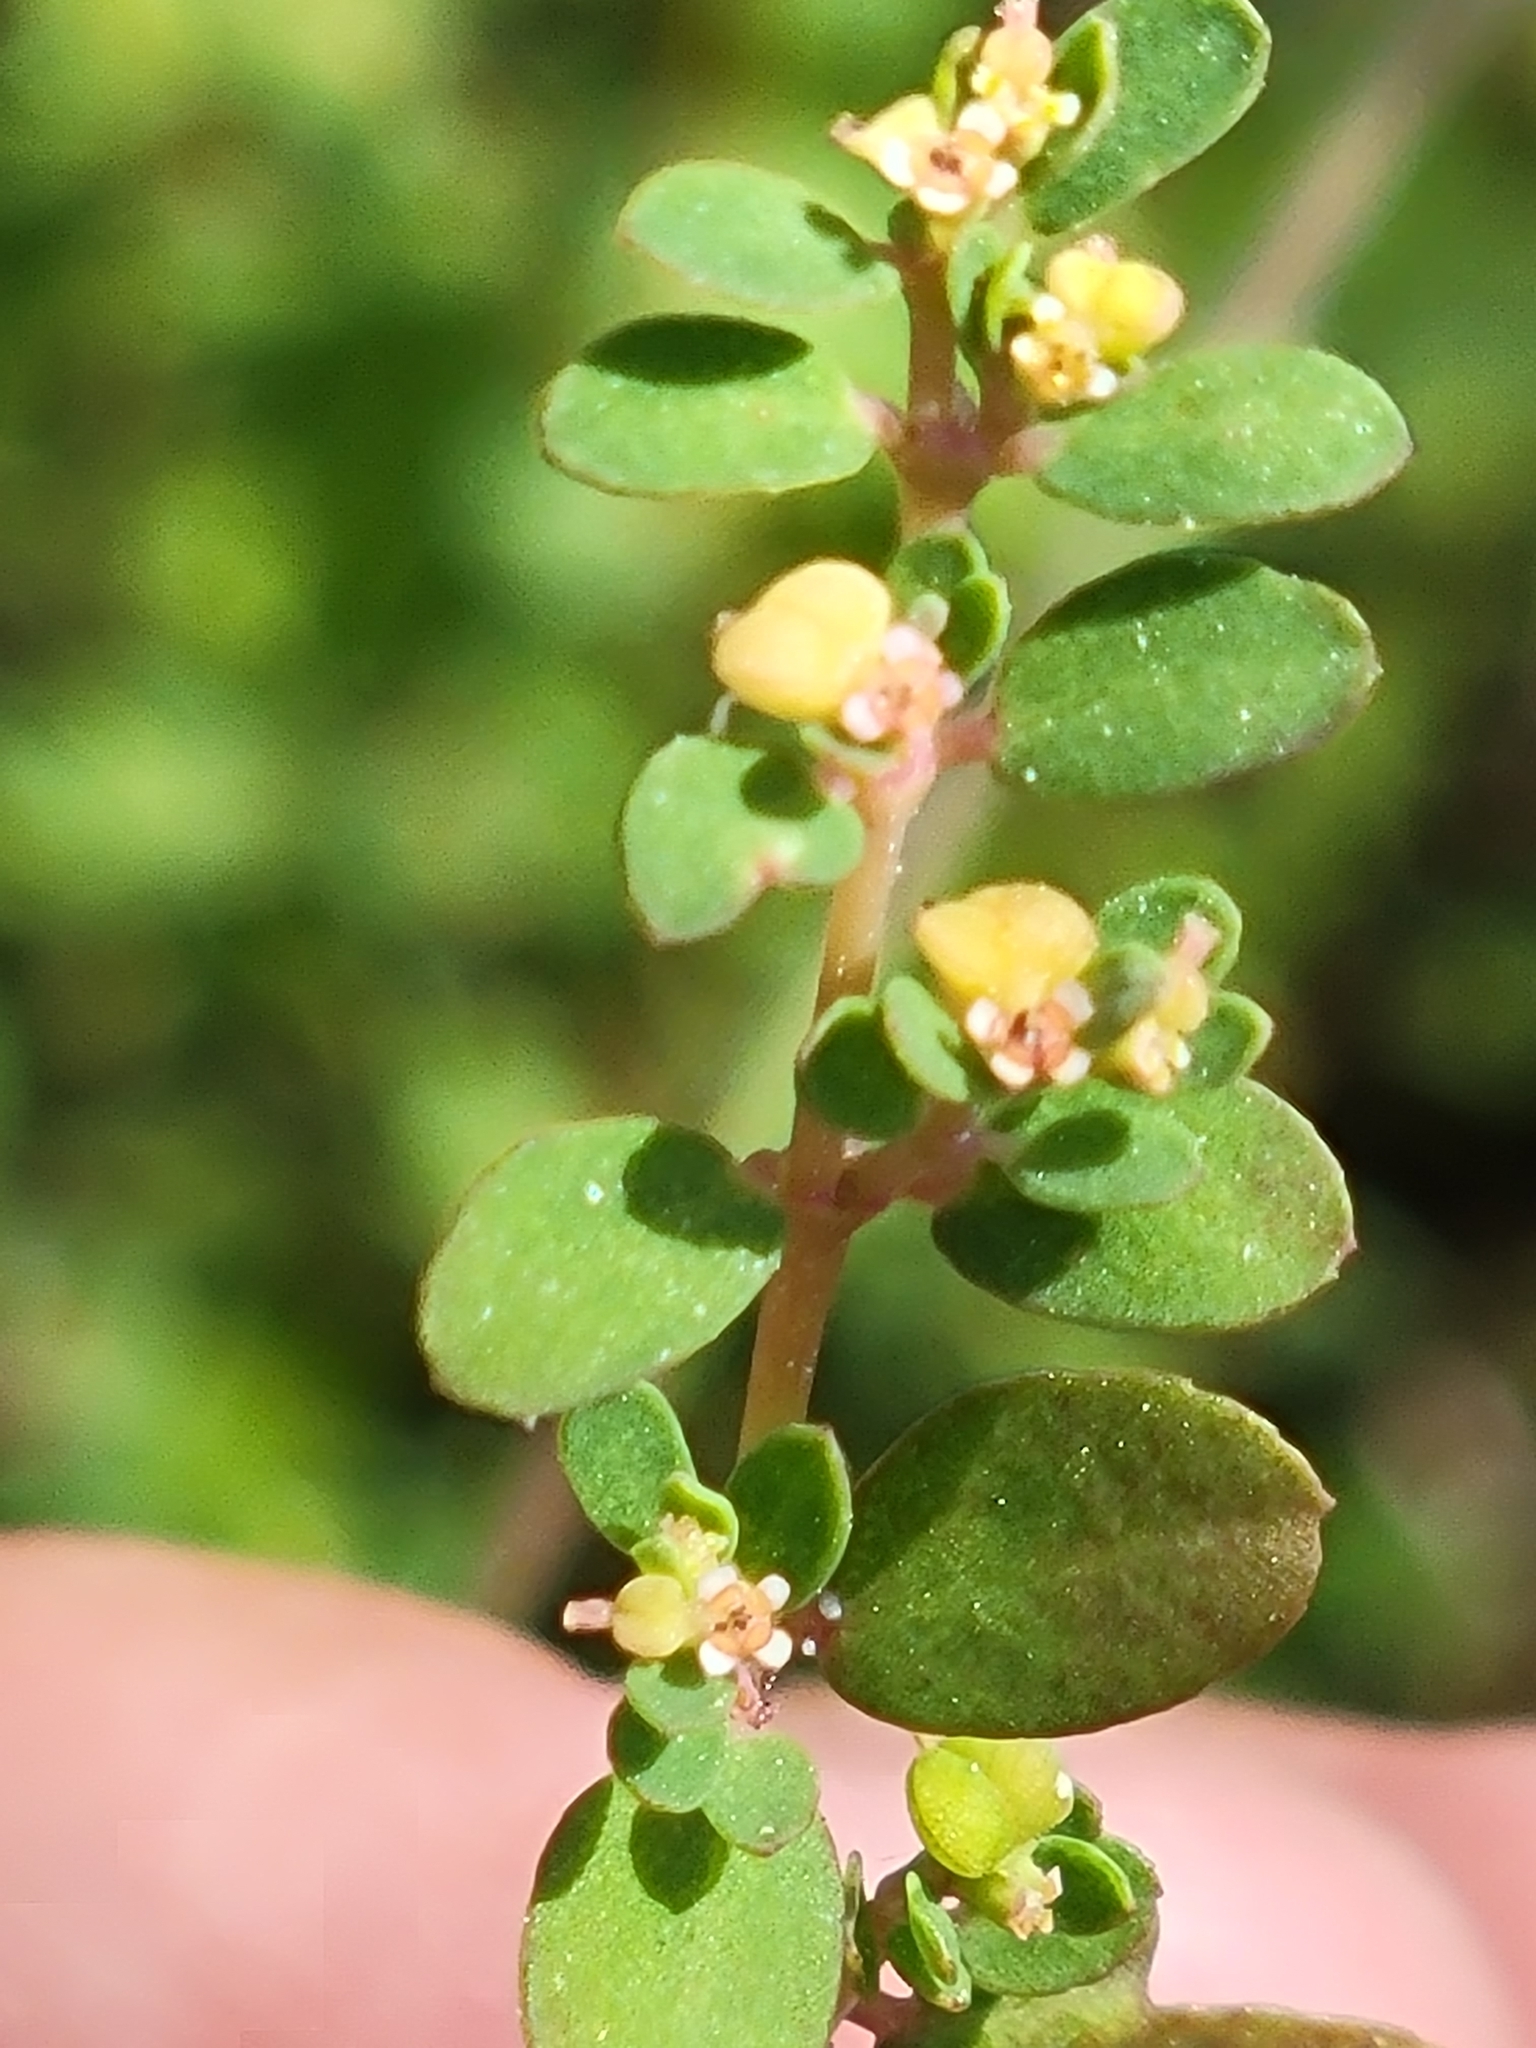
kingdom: Plantae
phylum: Tracheophyta
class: Magnoliopsida
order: Malpighiales
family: Euphorbiaceae
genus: Euphorbia
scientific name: Euphorbia blodgettii
